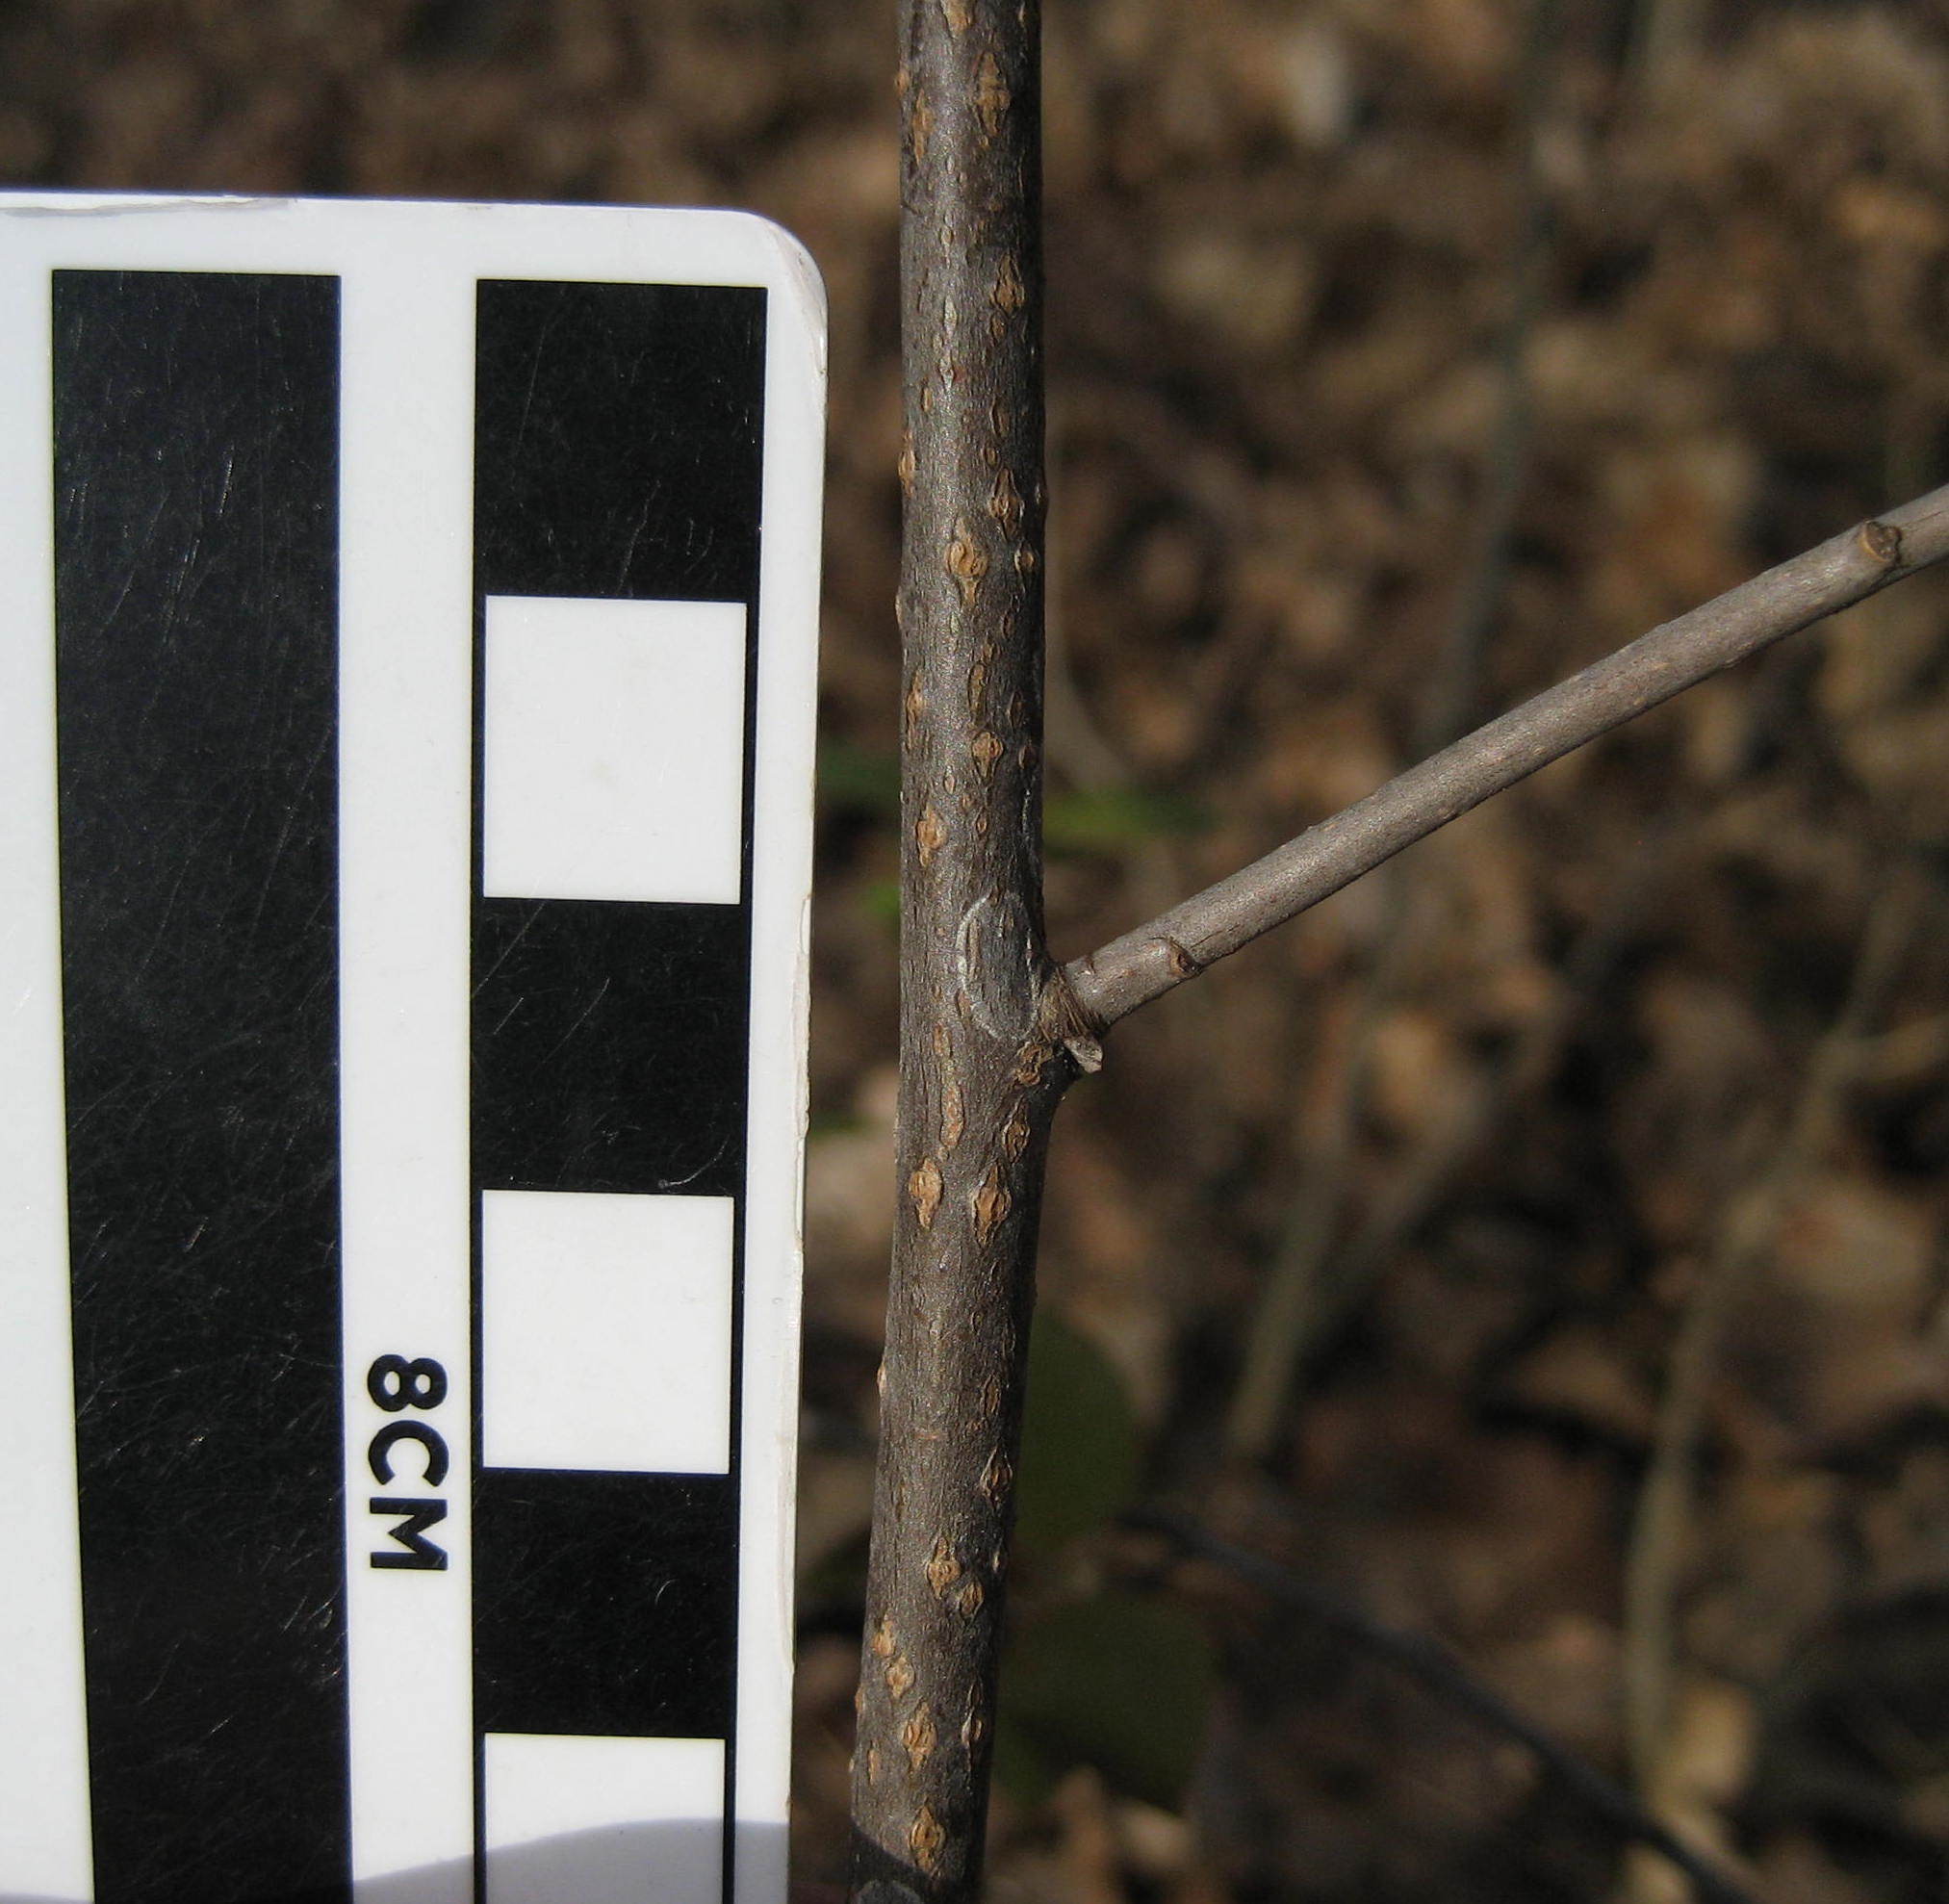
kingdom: Plantae
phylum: Tracheophyta
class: Magnoliopsida
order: Rosales
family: Rosaceae
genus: Prunus
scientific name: Prunus virginiana
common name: Chokecherry
